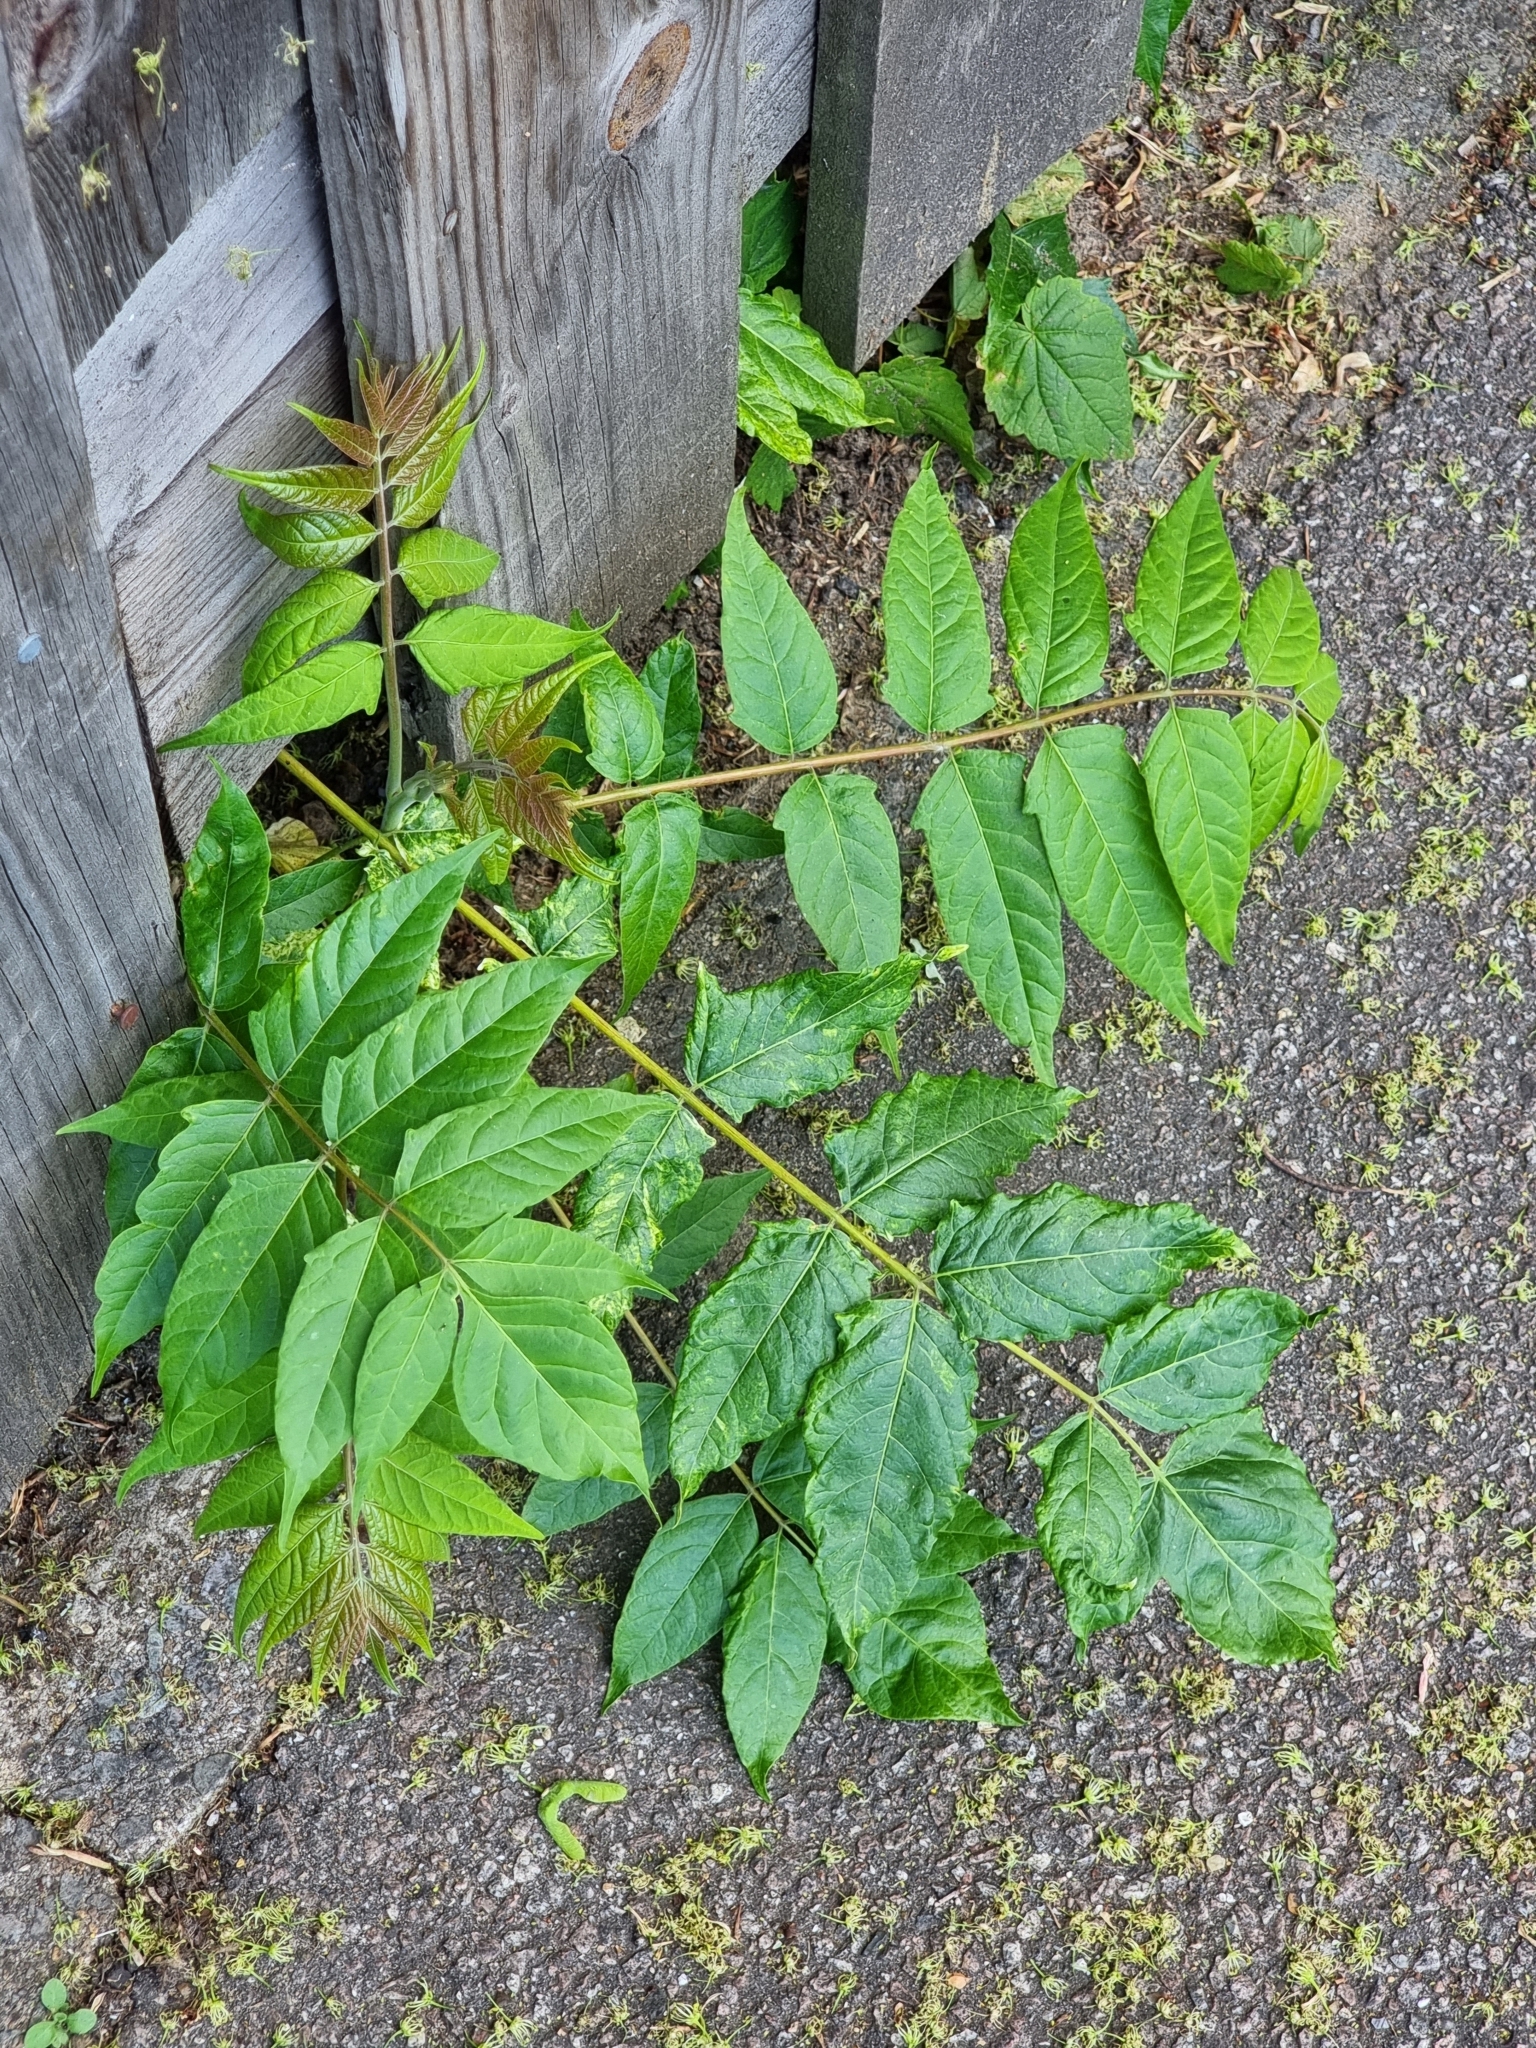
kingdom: Plantae
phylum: Tracheophyta
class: Magnoliopsida
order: Sapindales
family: Simaroubaceae
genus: Ailanthus
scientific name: Ailanthus altissima
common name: Tree-of-heaven
